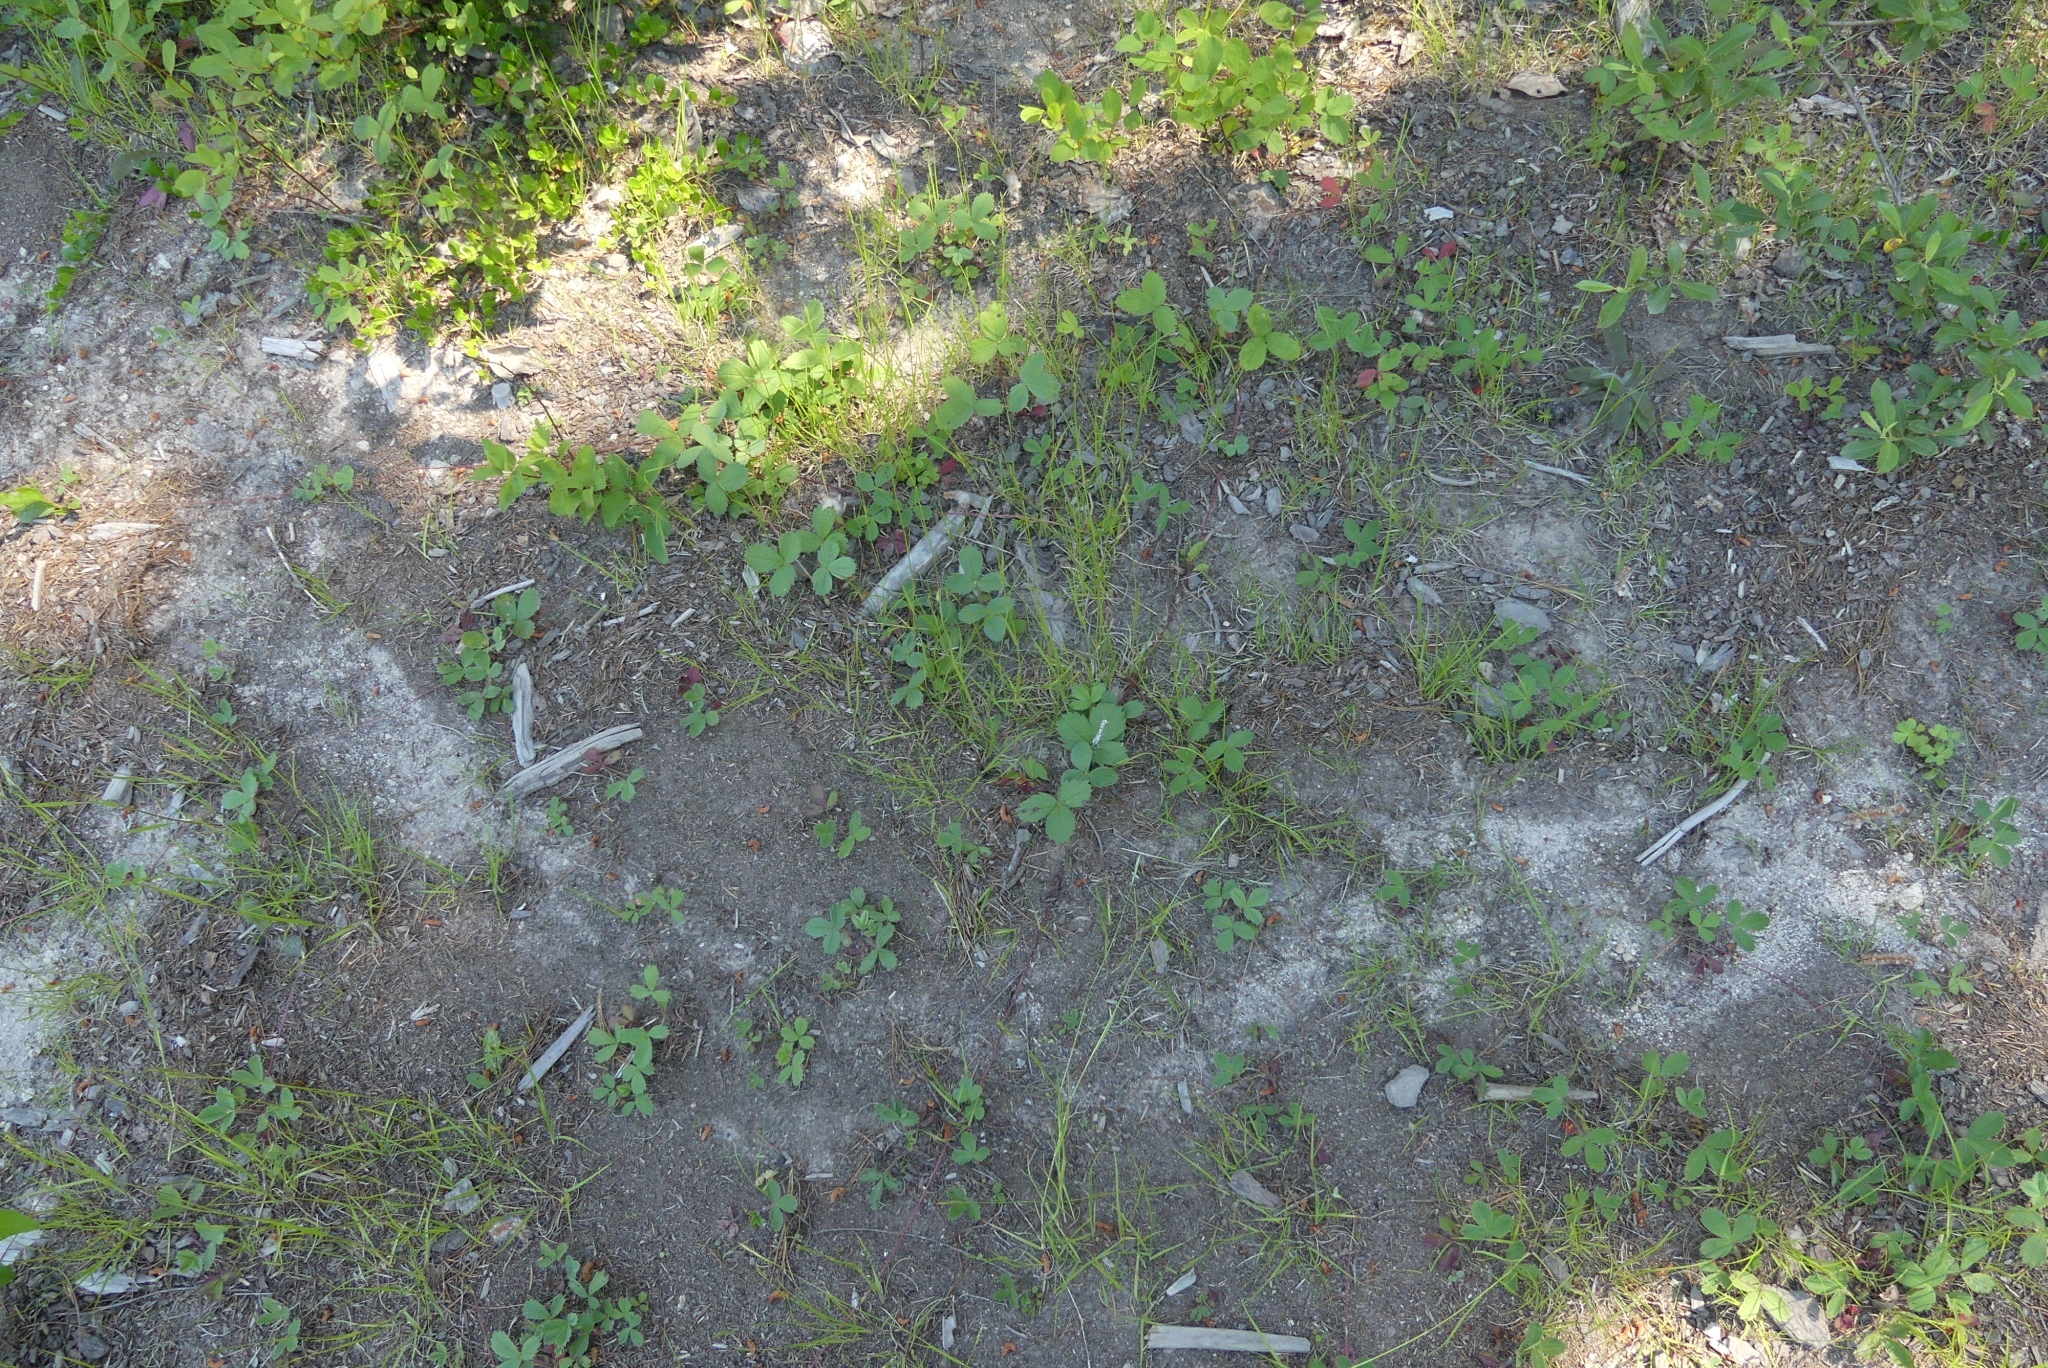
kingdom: Plantae
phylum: Tracheophyta
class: Magnoliopsida
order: Rosales
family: Rosaceae
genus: Fragaria
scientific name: Fragaria virginiana
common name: Thickleaved wild strawberry
